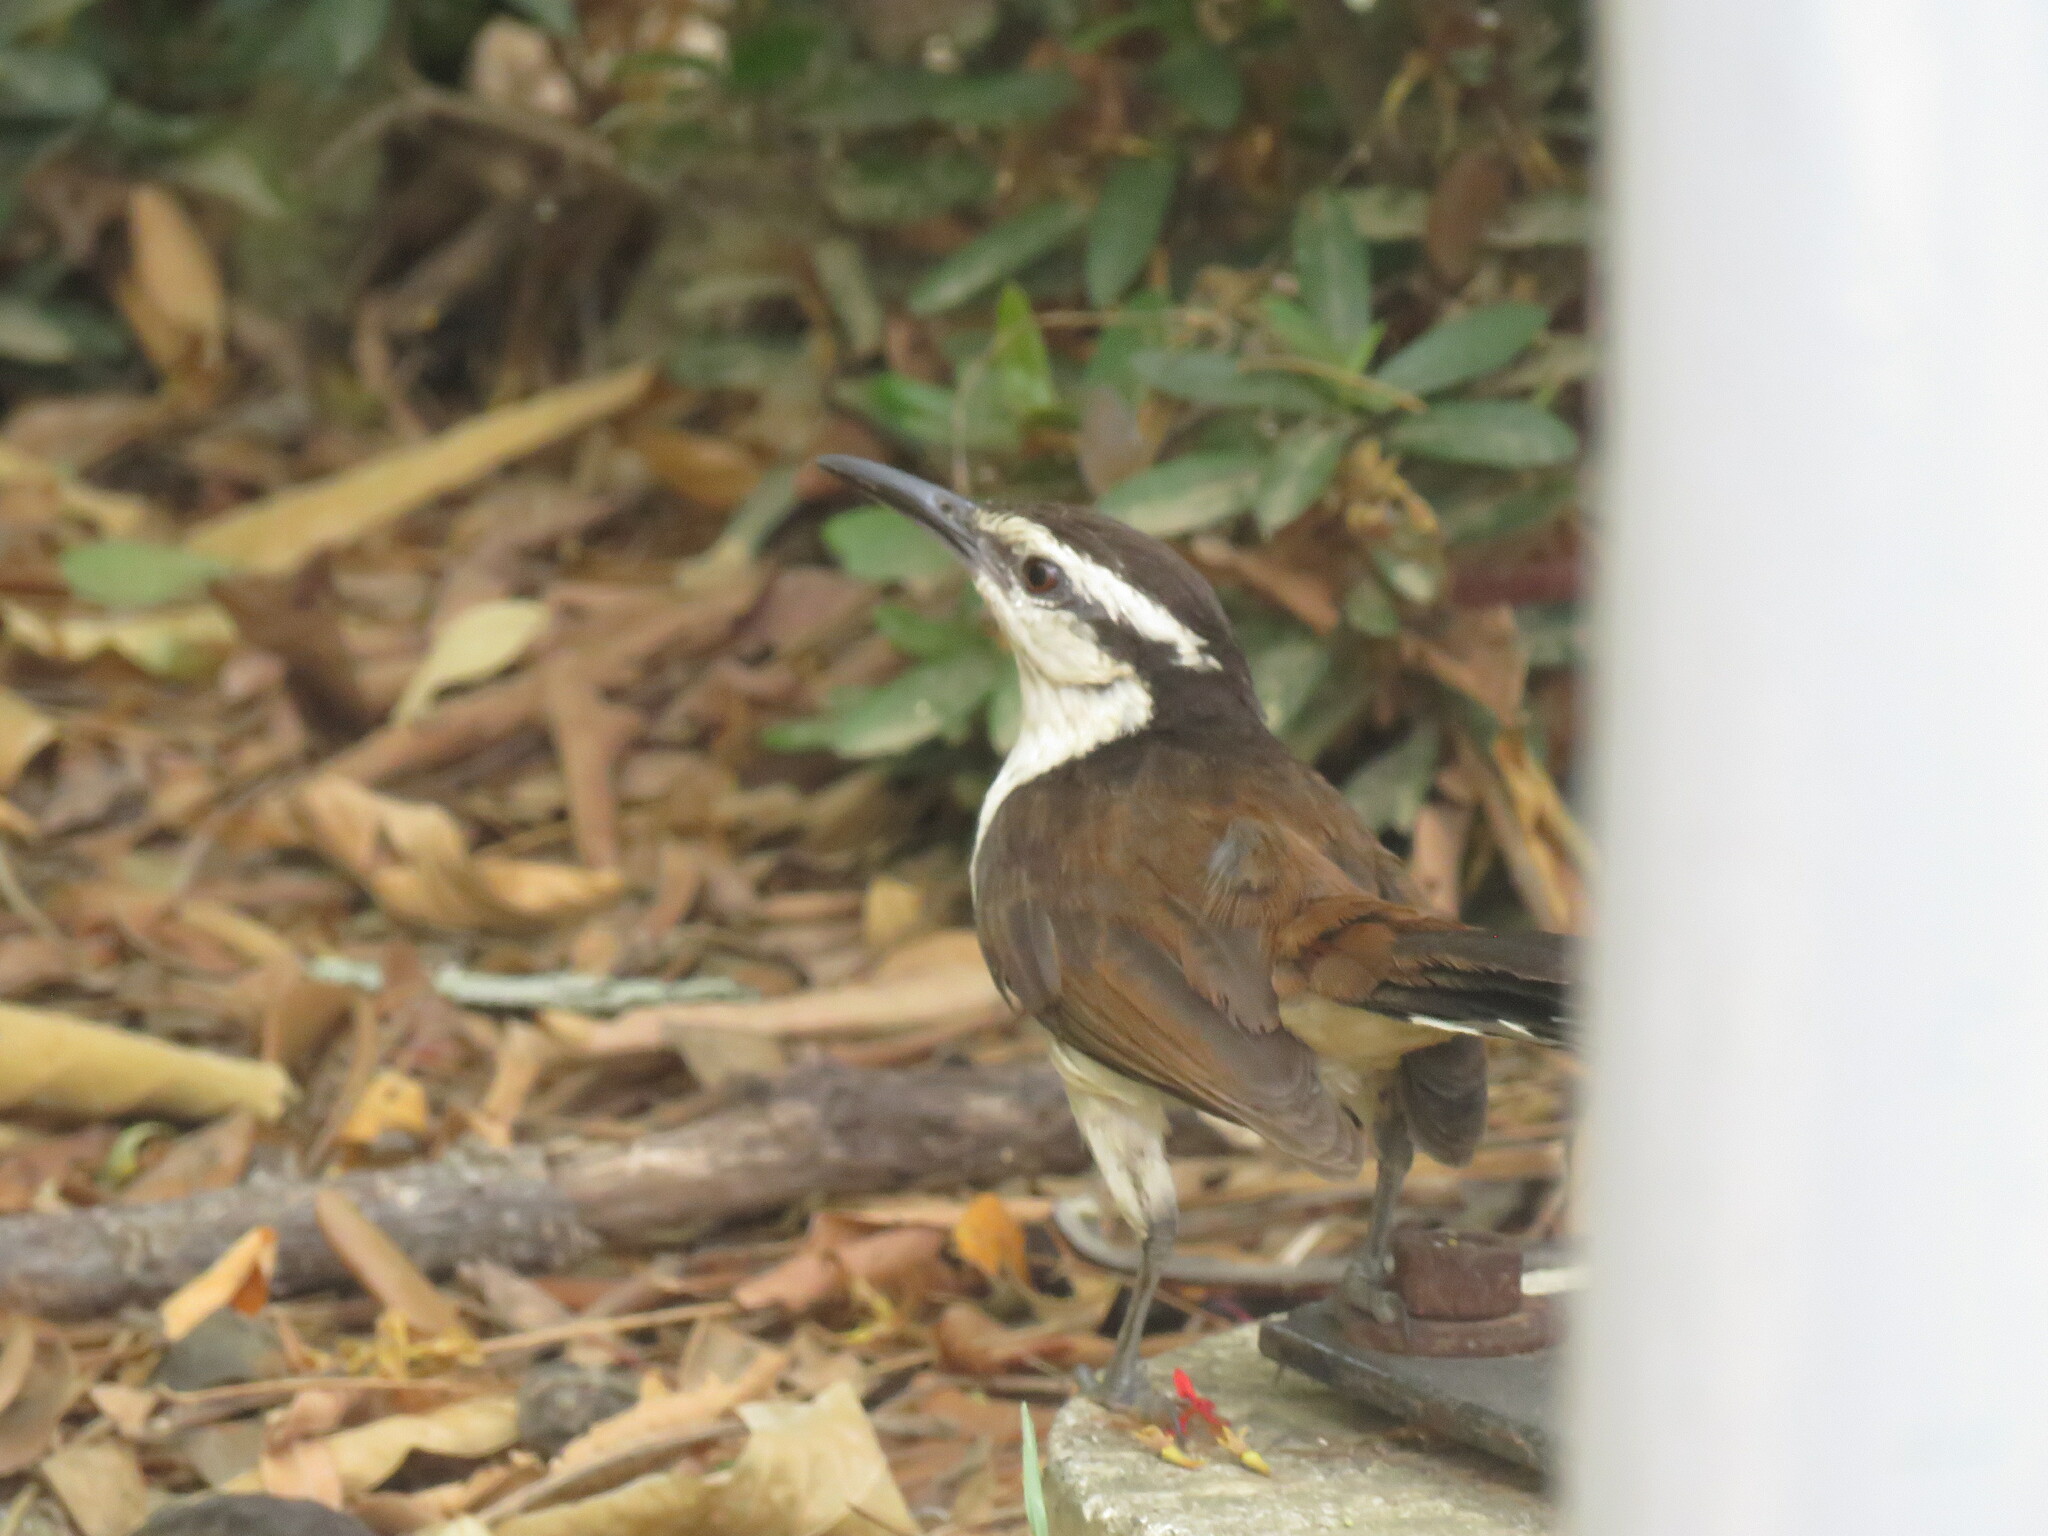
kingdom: Animalia
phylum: Chordata
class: Aves
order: Passeriformes
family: Troglodytidae
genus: Campylorhynchus
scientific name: Campylorhynchus griseus
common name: Bicolored wren
